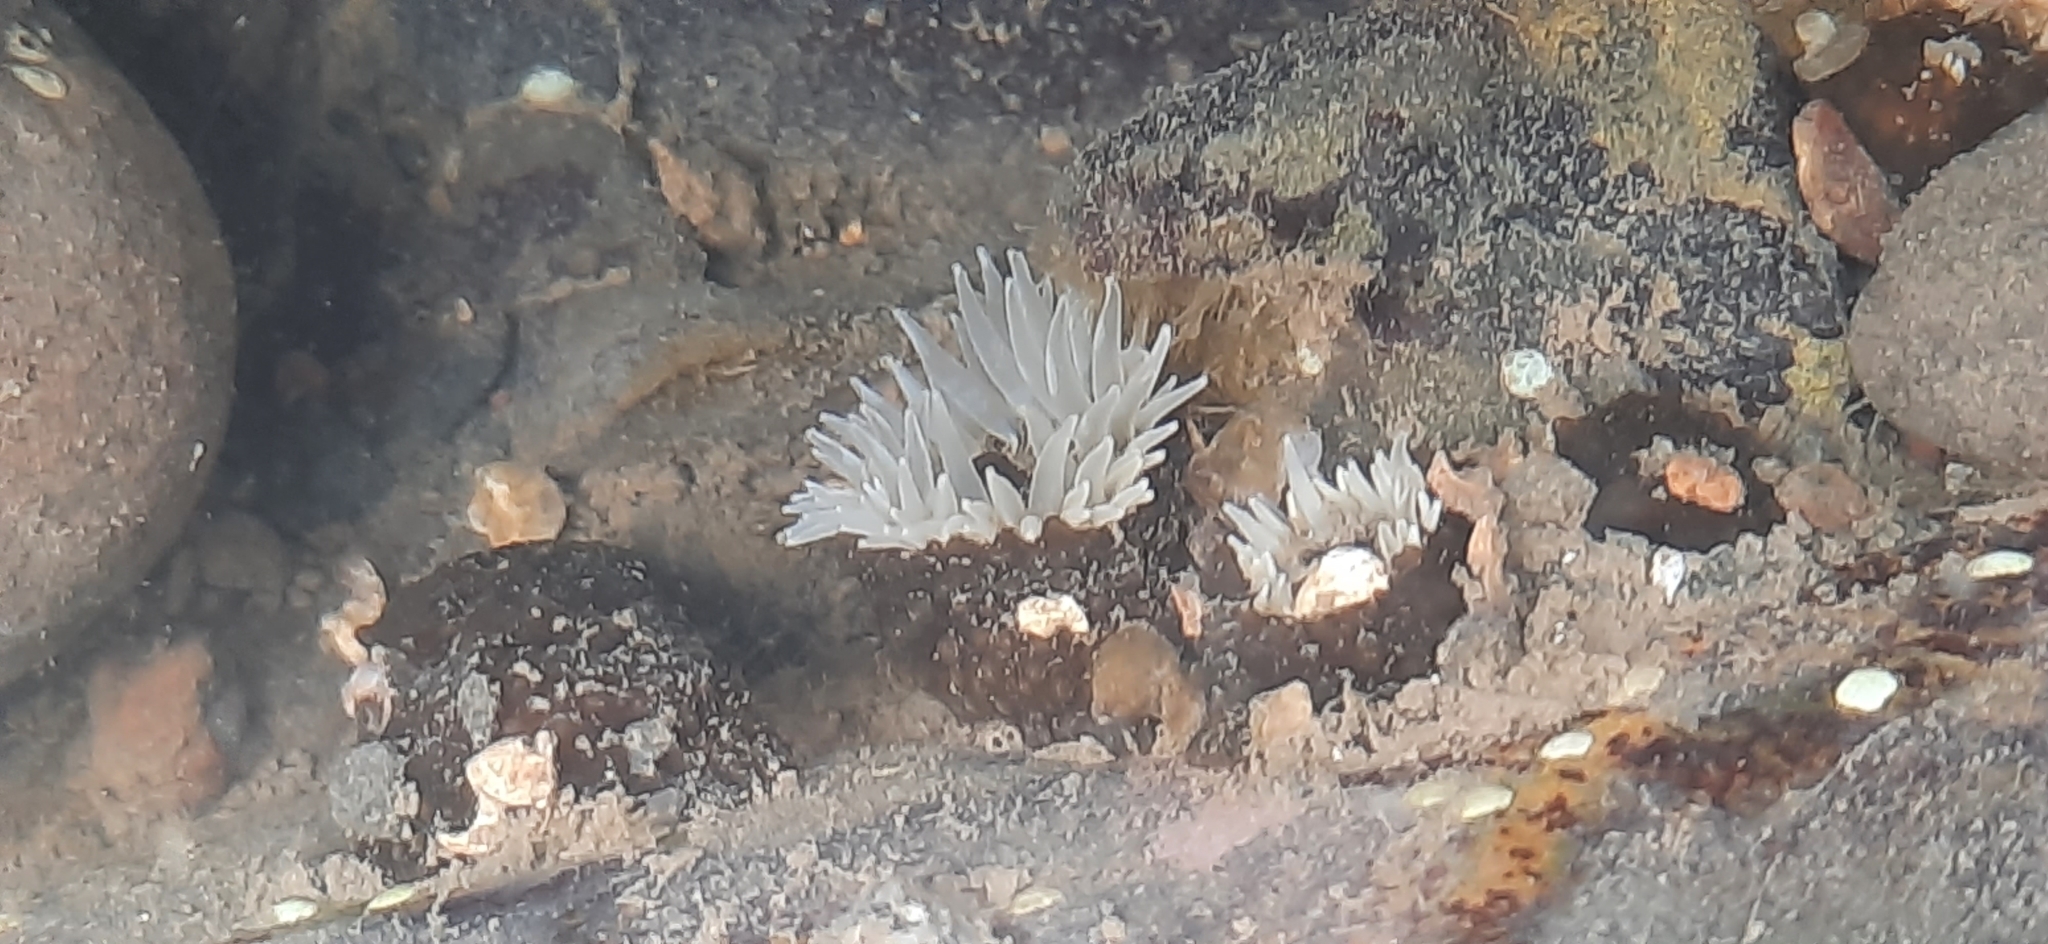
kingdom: Animalia
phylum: Cnidaria
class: Anthozoa
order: Actiniaria
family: Actiniidae
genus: Anthopleura
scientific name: Anthopleura anjunae
